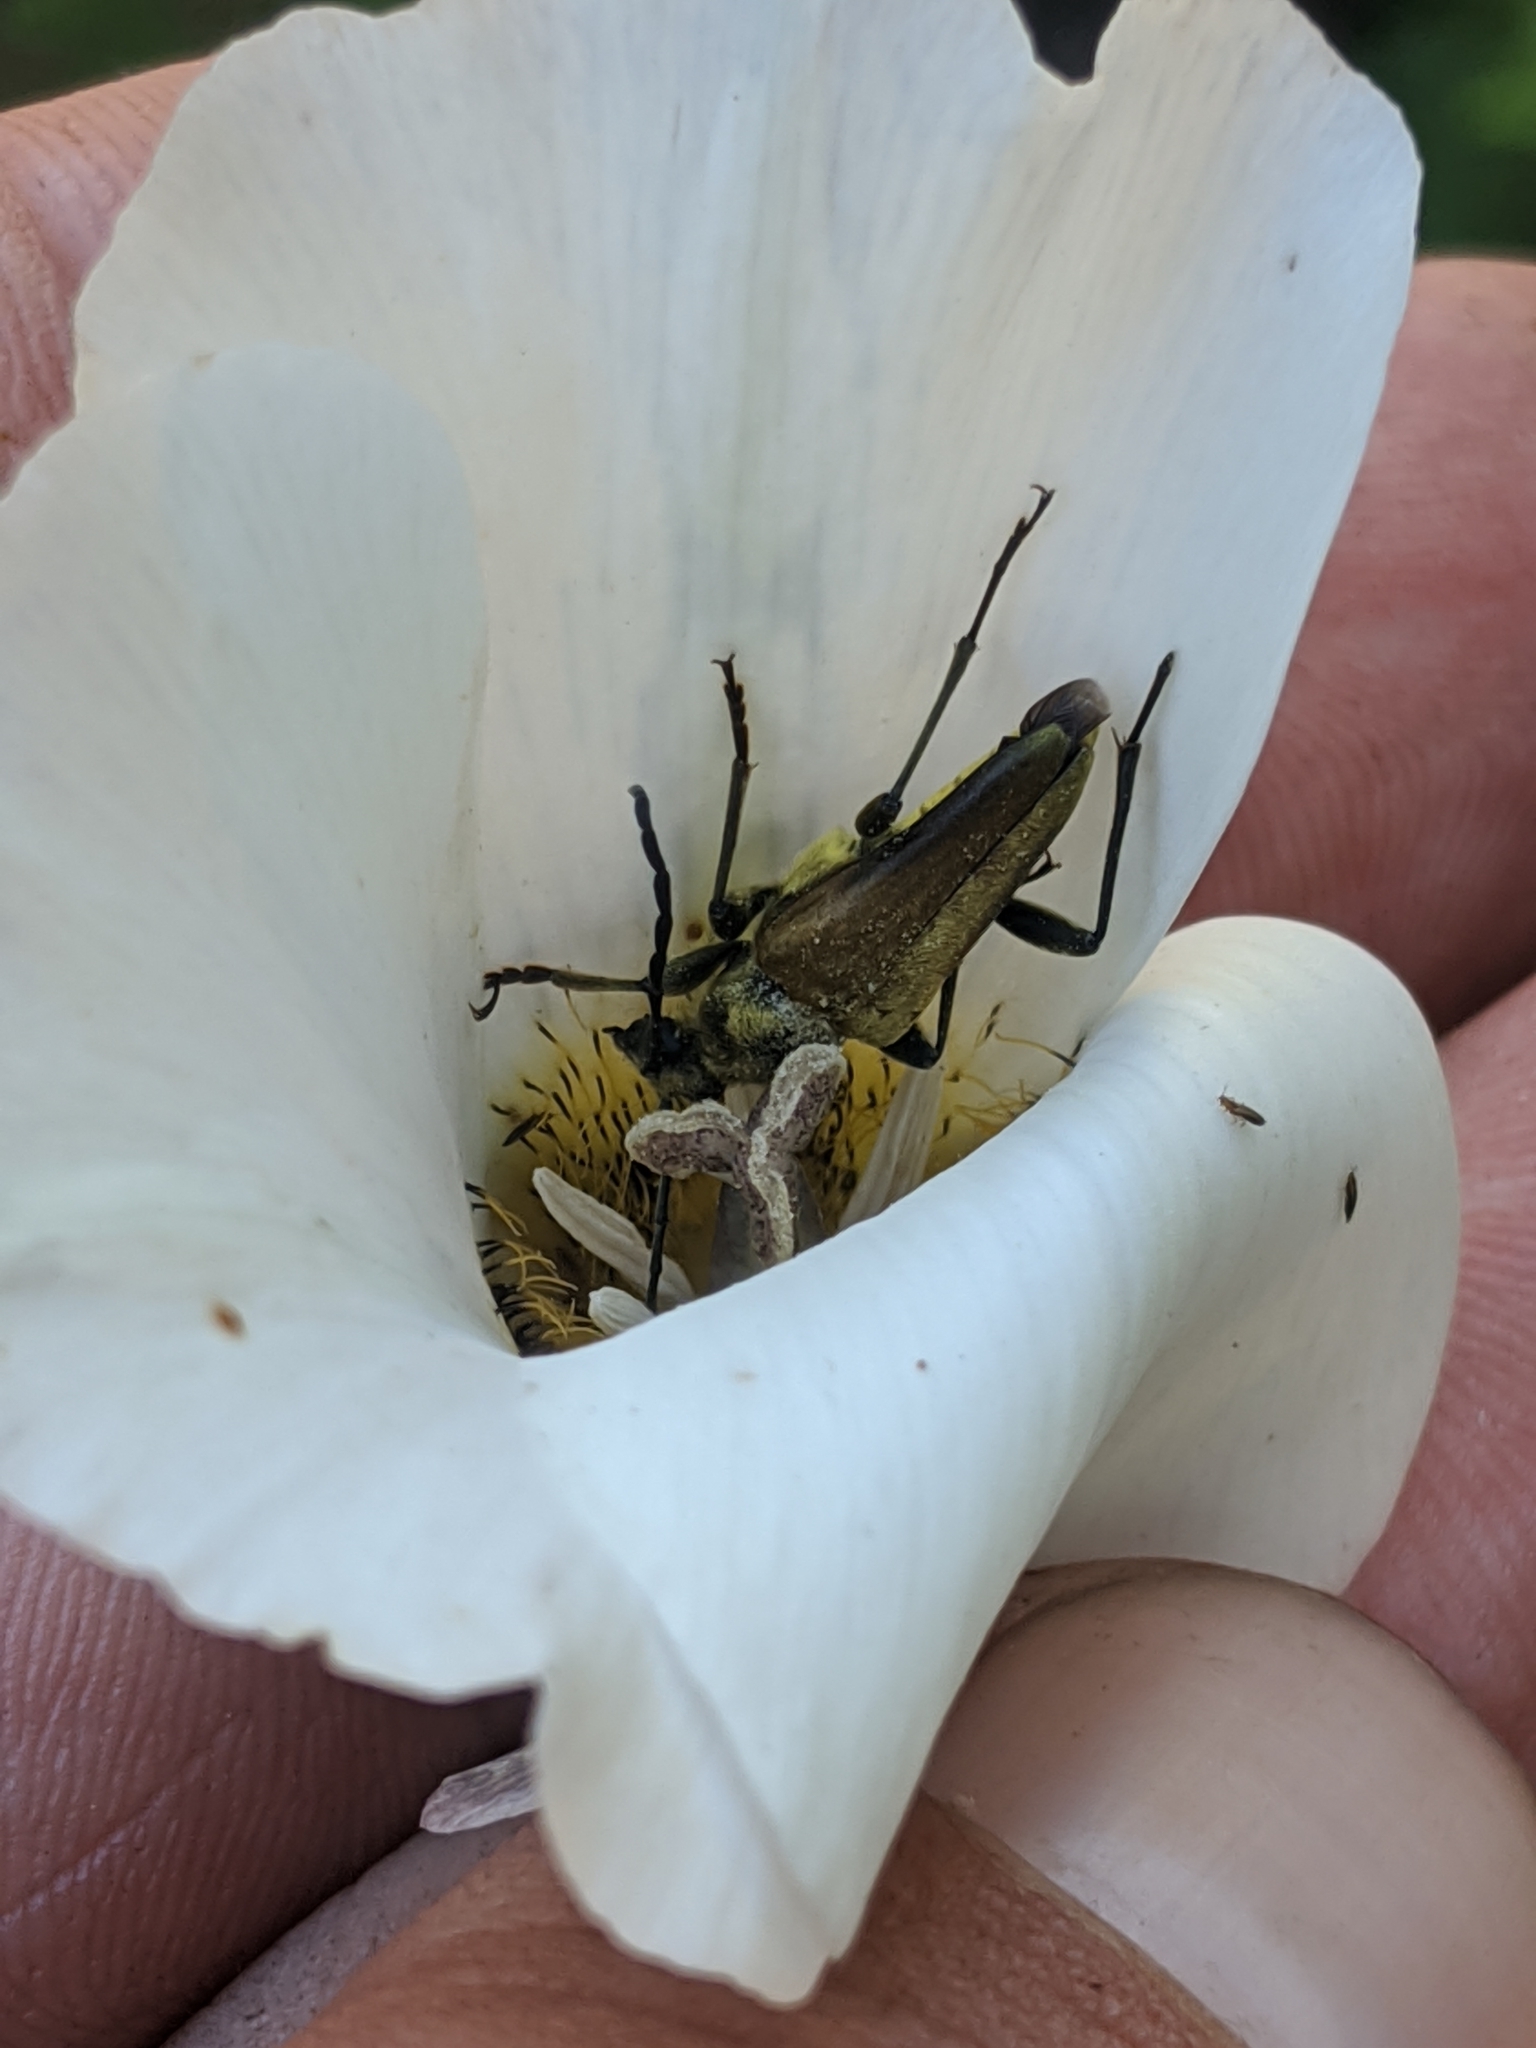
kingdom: Plantae
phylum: Tracheophyta
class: Liliopsida
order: Liliales
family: Liliaceae
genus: Calochortus
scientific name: Calochortus leichtlinii
